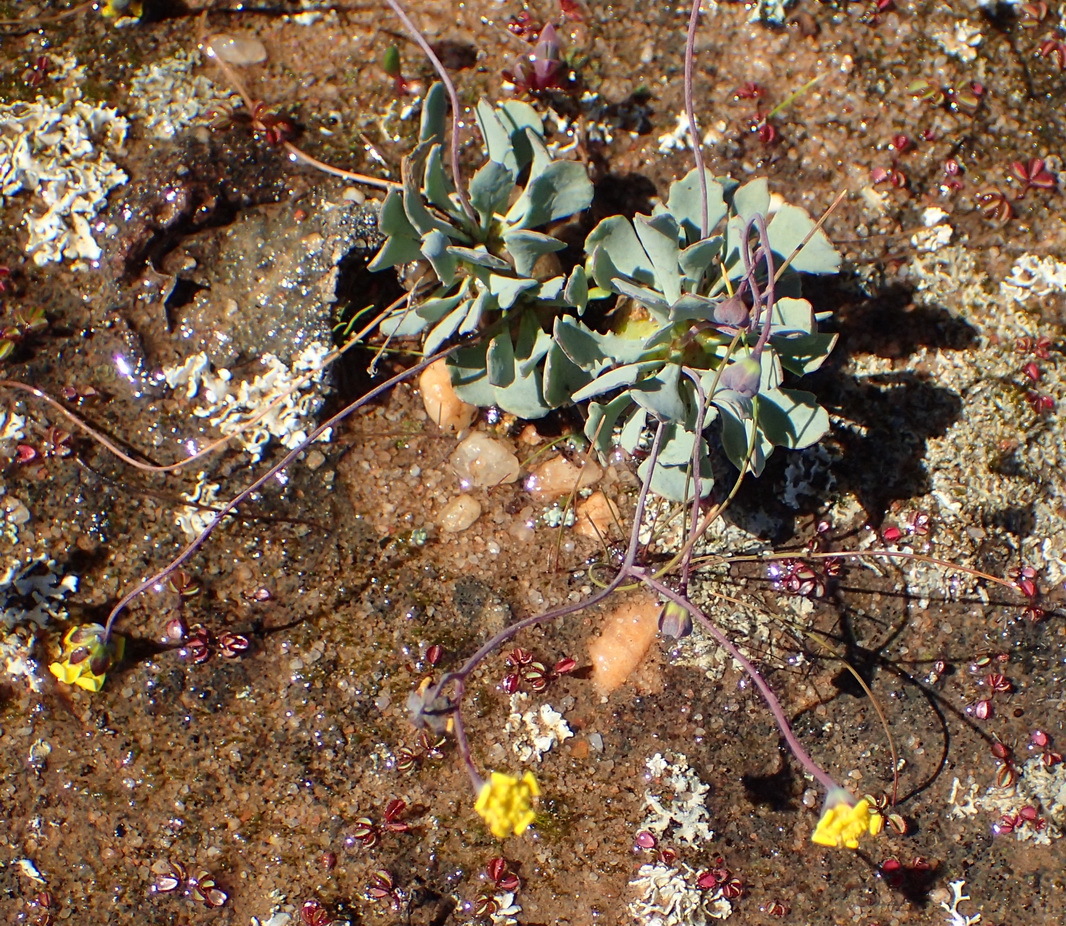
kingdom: Plantae
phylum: Tracheophyta
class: Magnoliopsida
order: Asterales
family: Asteraceae
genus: Crassothonna
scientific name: Crassothonna cacalioides
